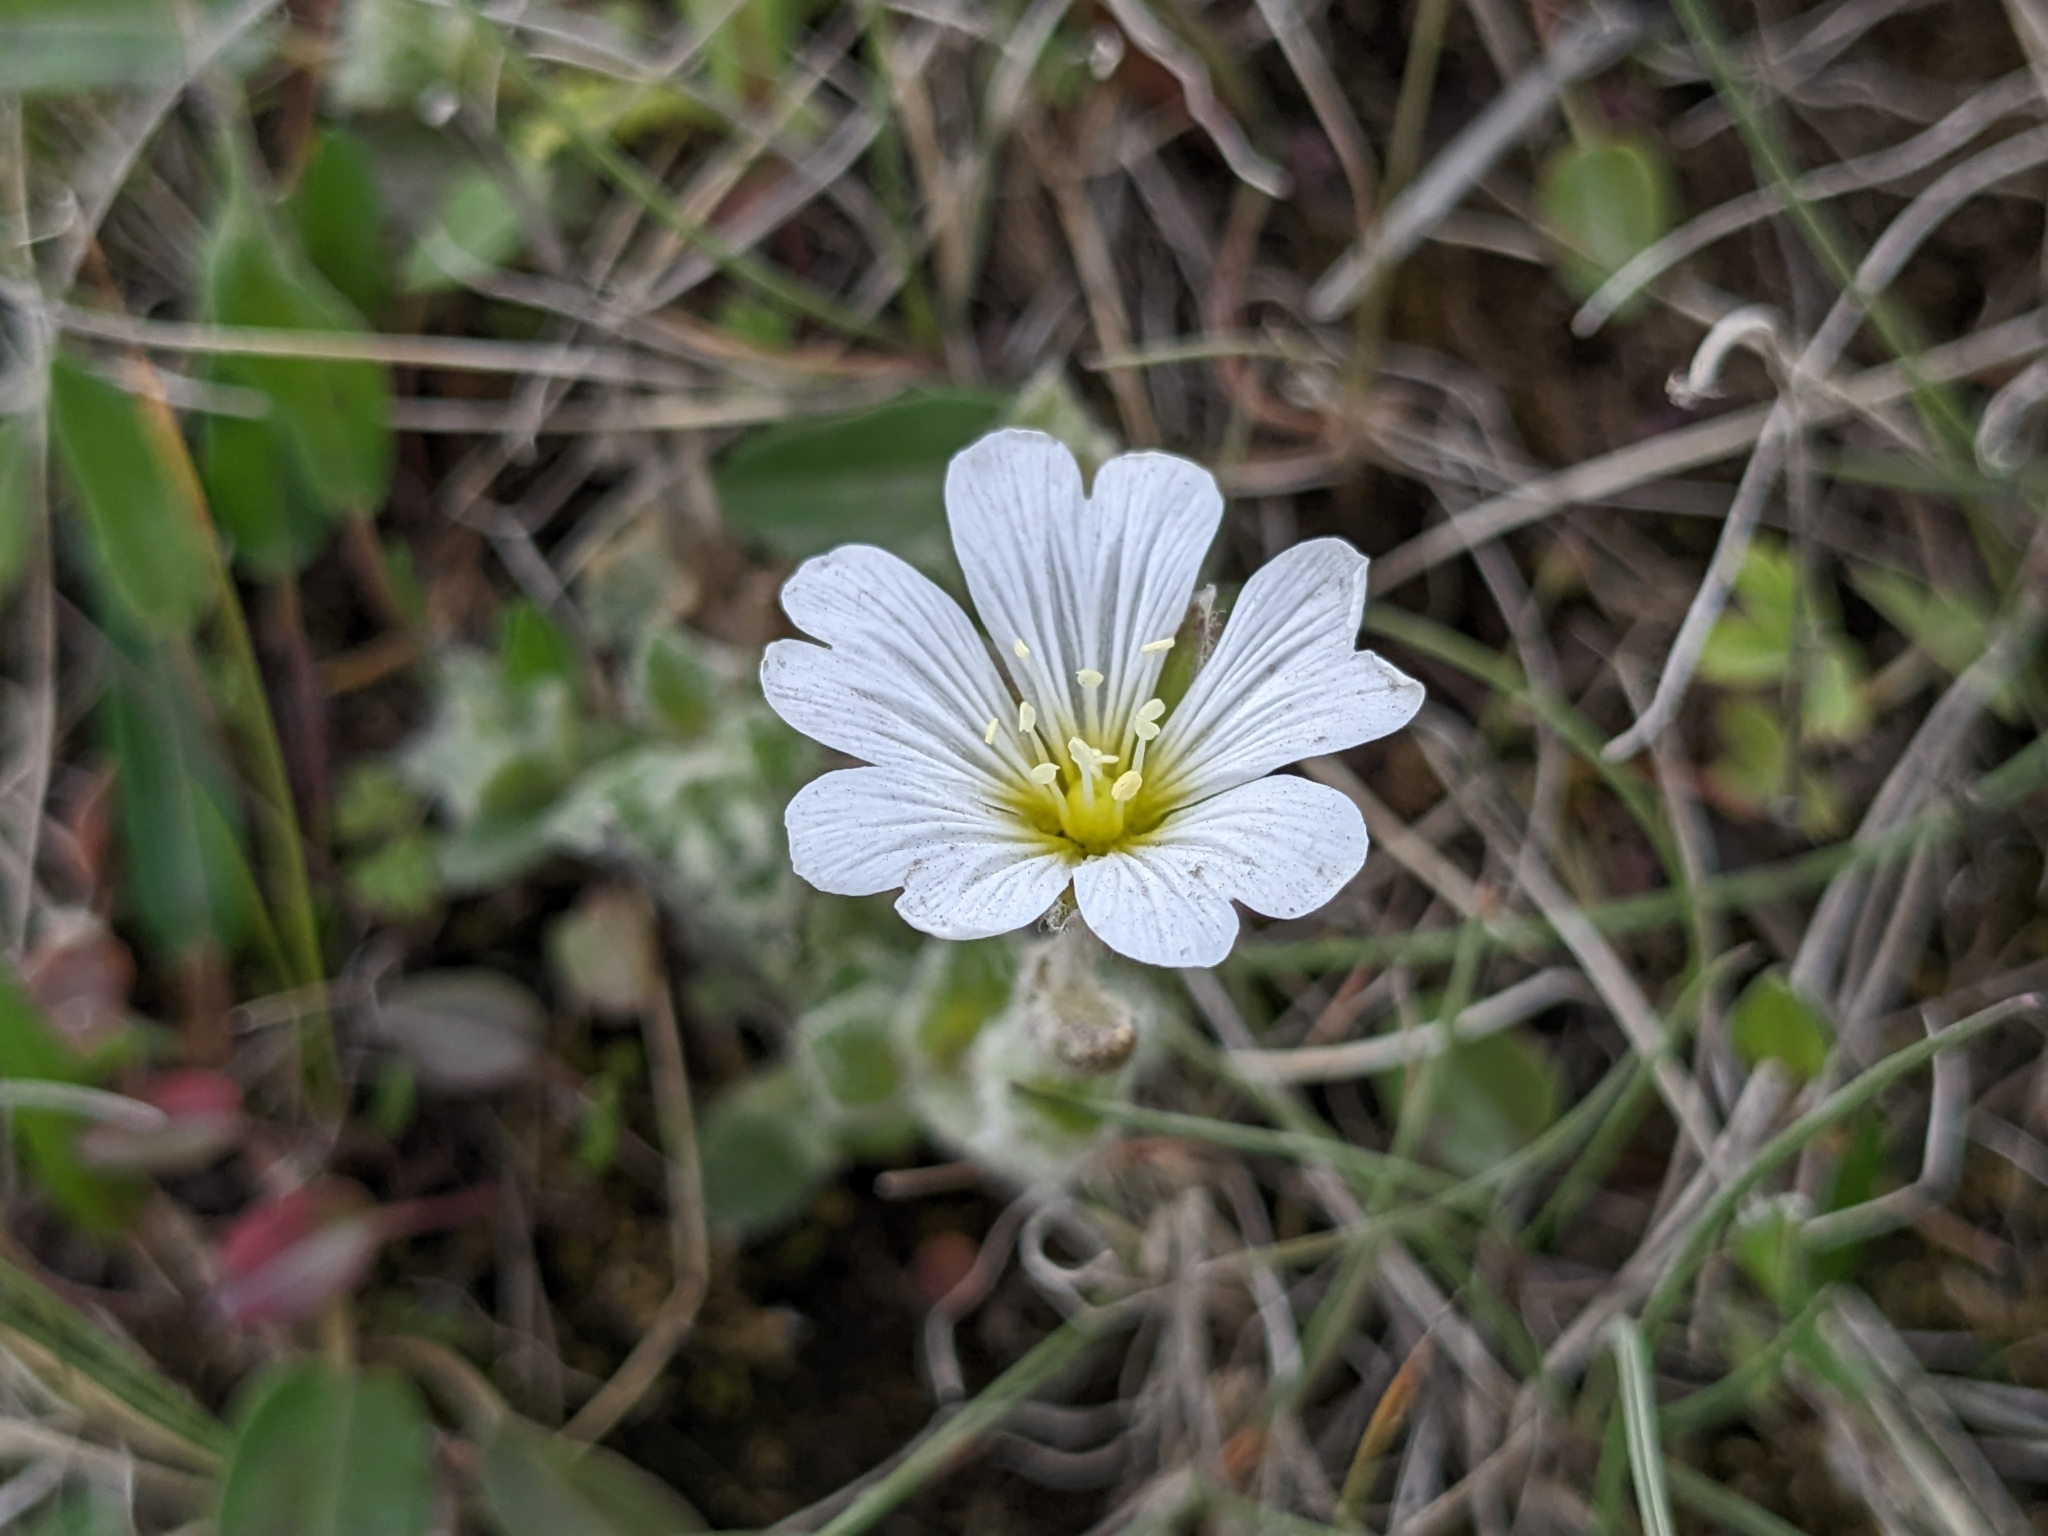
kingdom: Plantae
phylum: Tracheophyta
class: Magnoliopsida
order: Caryophyllales
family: Caryophyllaceae
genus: Cerastium
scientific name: Cerastium alpinum
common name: Alpine mouse-ear
